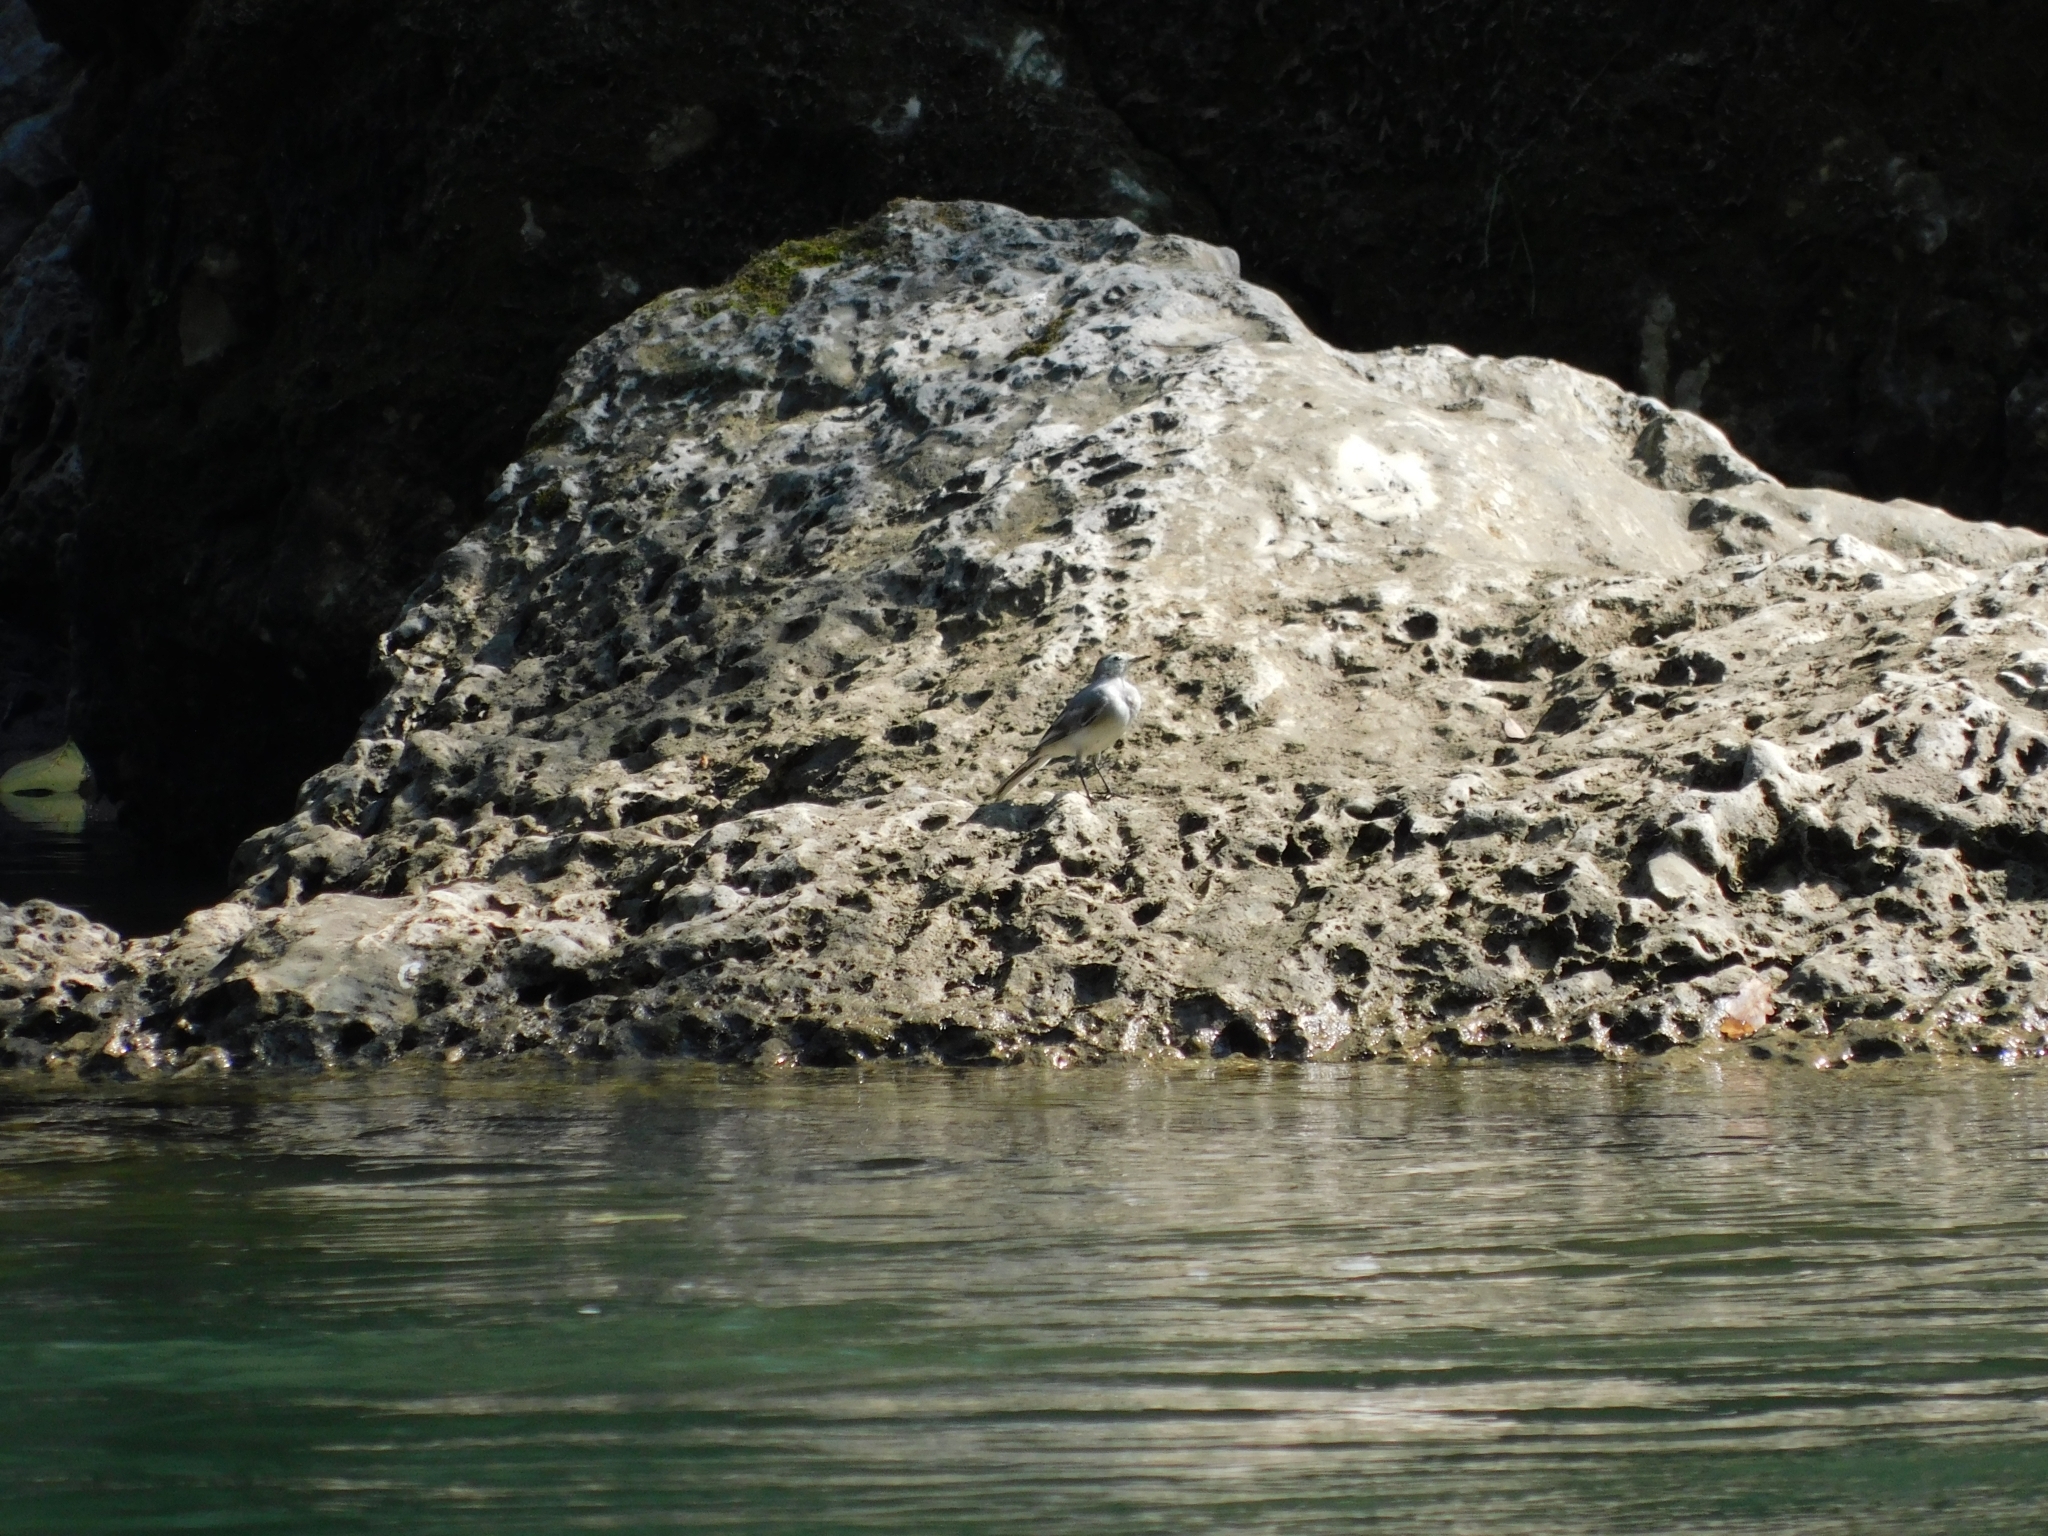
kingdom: Animalia
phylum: Chordata
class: Aves
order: Passeriformes
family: Motacillidae
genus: Motacilla
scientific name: Motacilla alba
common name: White wagtail
